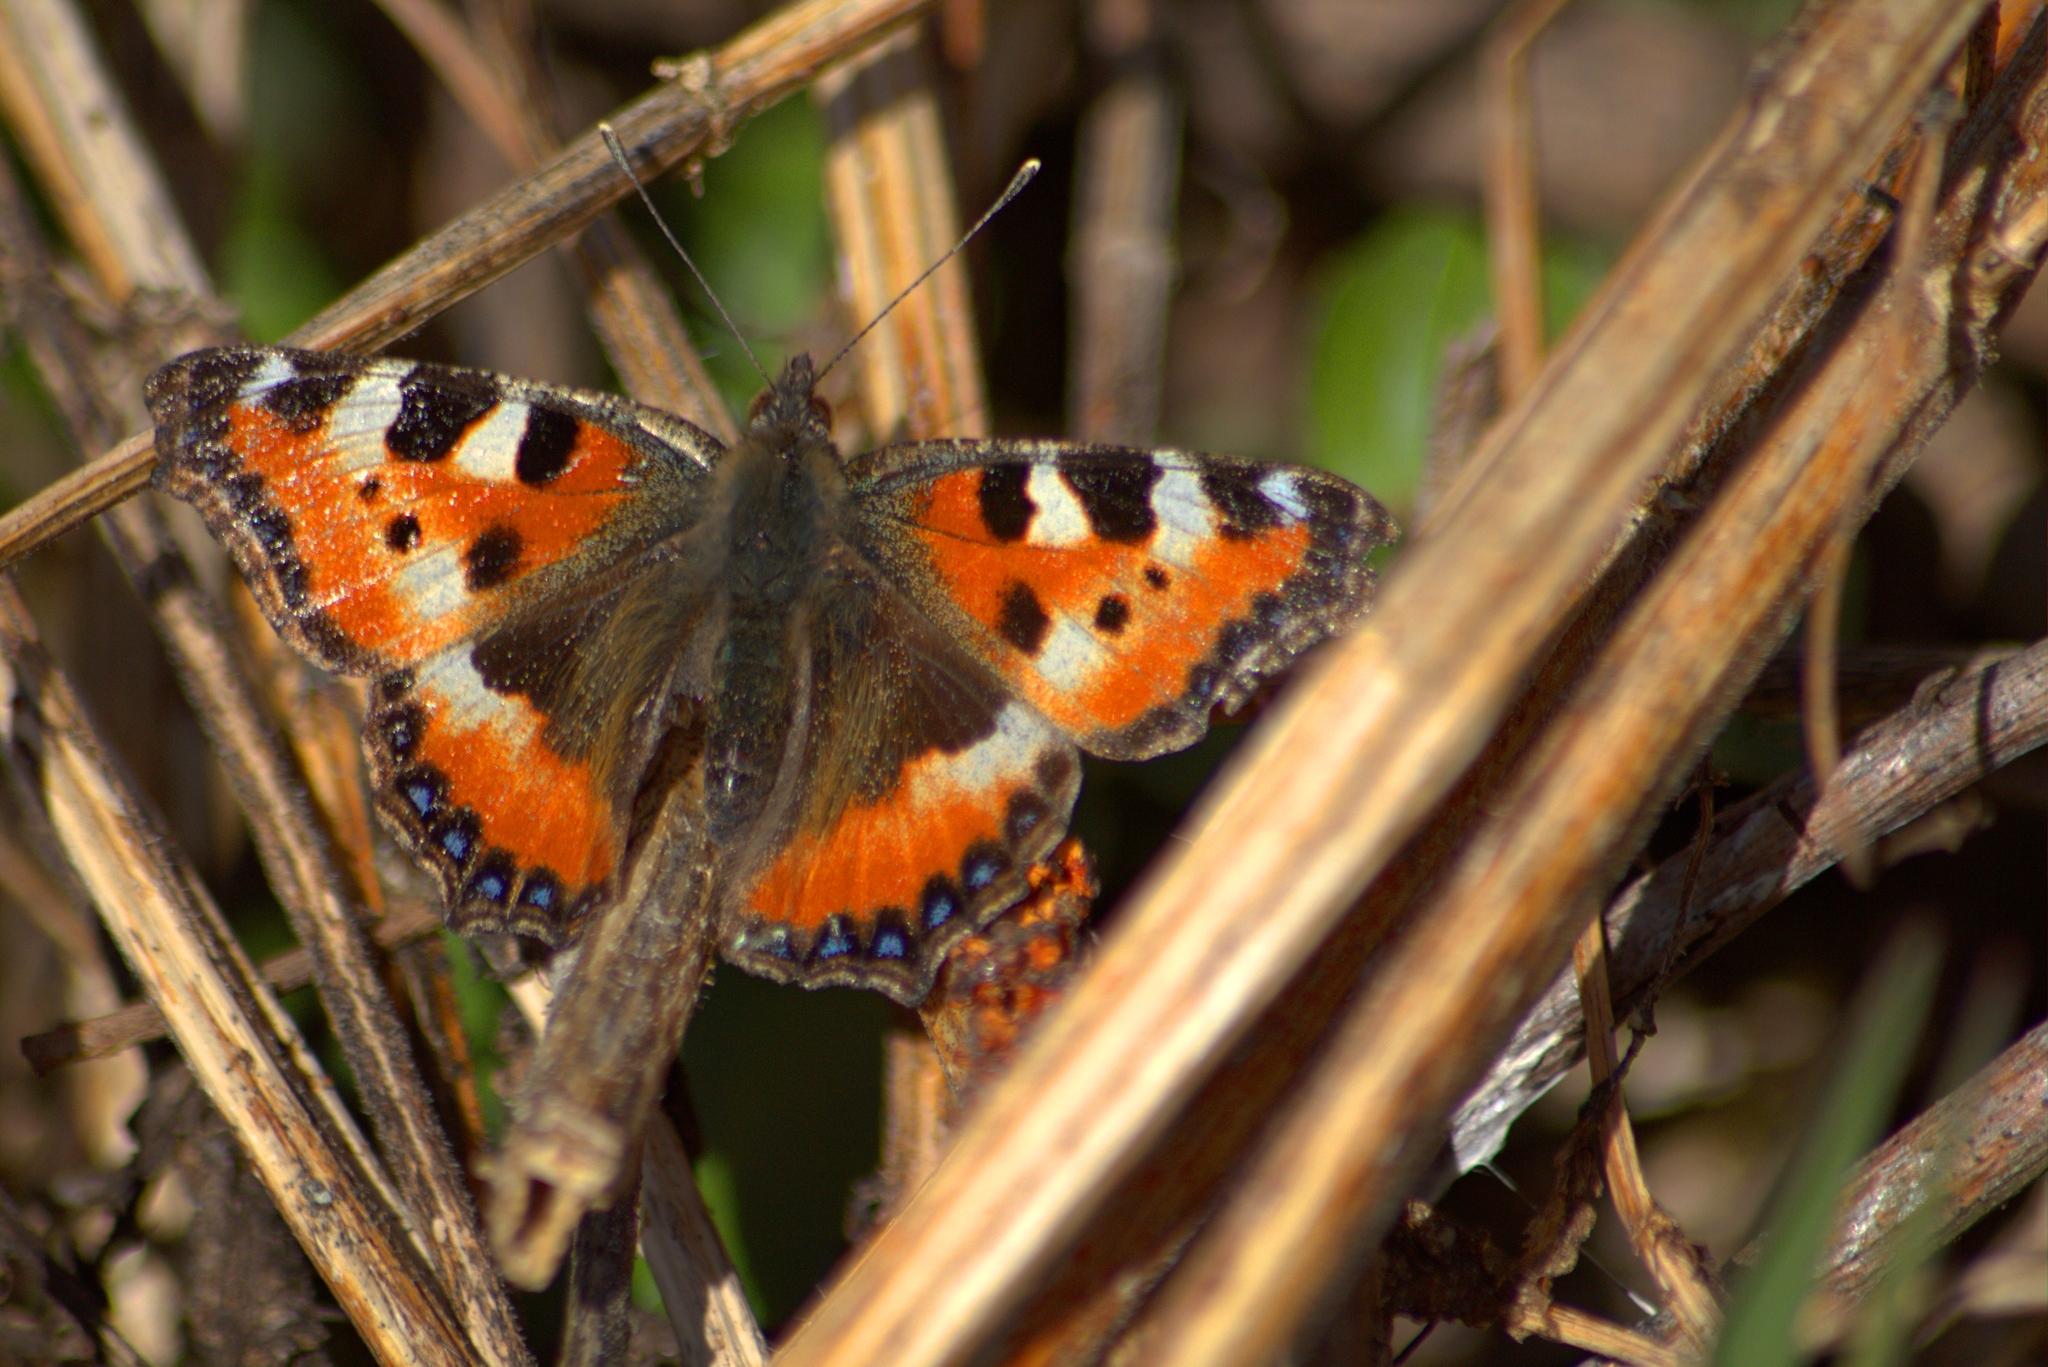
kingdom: Animalia
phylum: Arthropoda
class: Insecta
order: Lepidoptera
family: Nymphalidae
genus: Aglais
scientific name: Aglais urticae
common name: Small tortoiseshell
